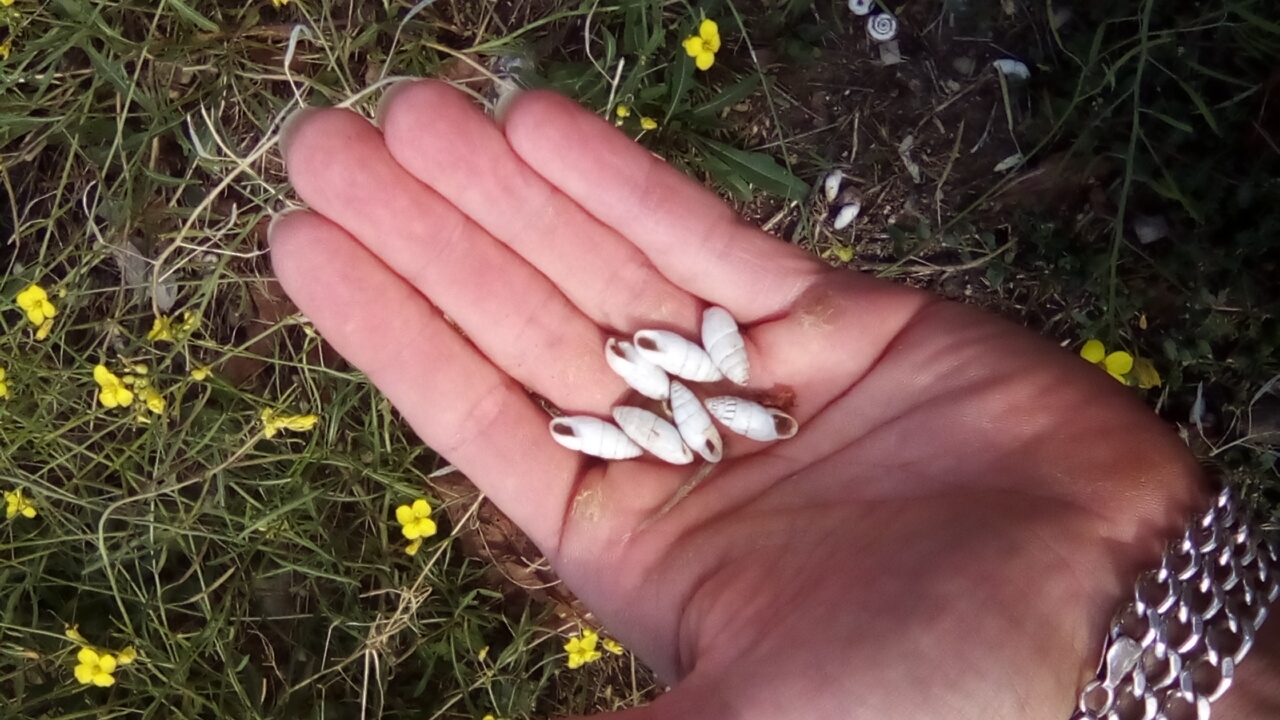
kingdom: Animalia
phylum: Mollusca
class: Gastropoda
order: Stylommatophora
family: Enidae
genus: Brephulopsis
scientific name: Brephulopsis cylindrica
